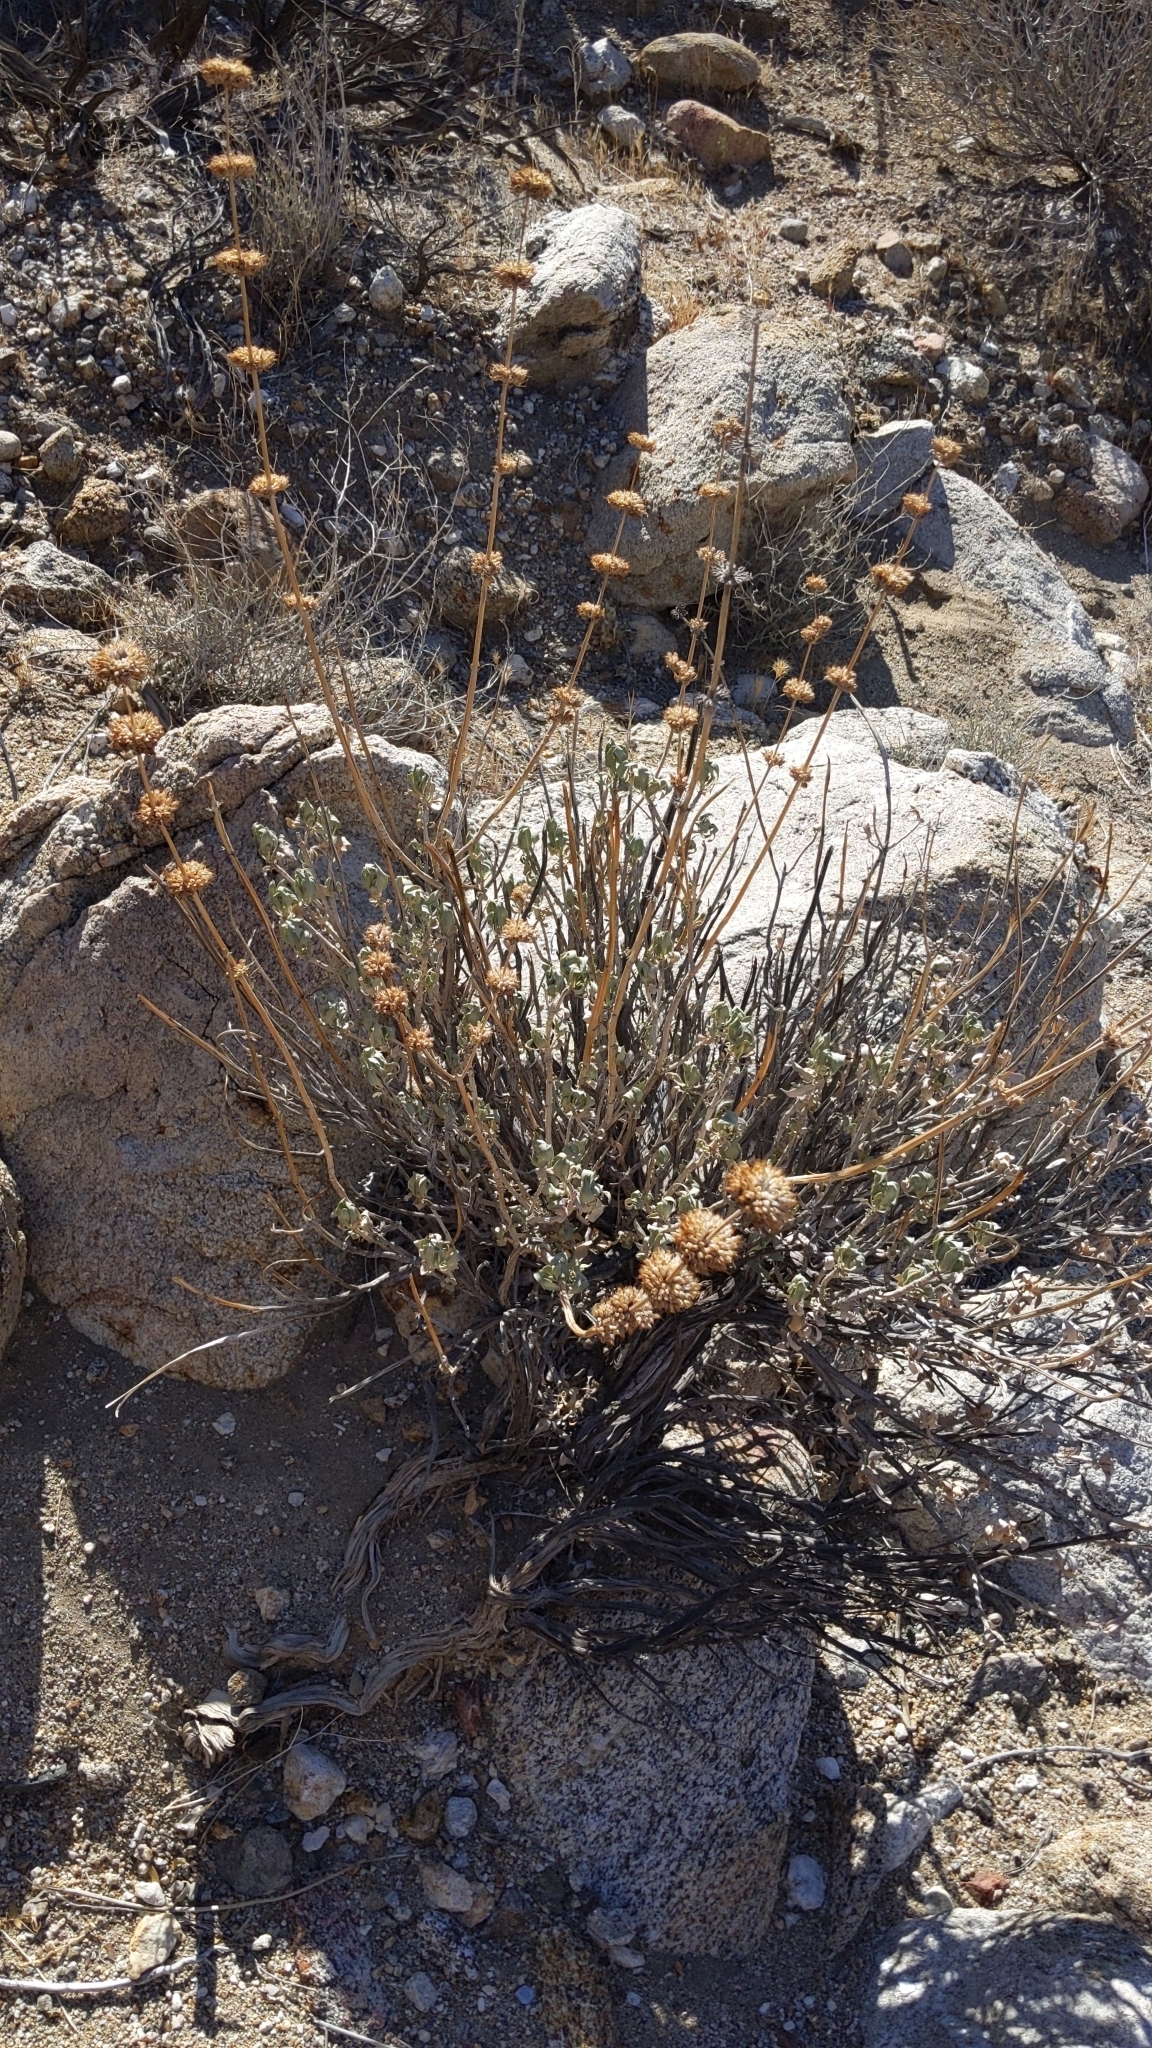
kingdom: Plantae
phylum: Tracheophyta
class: Magnoliopsida
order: Lamiales
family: Lamiaceae
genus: Salvia
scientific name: Salvia vaseyi
